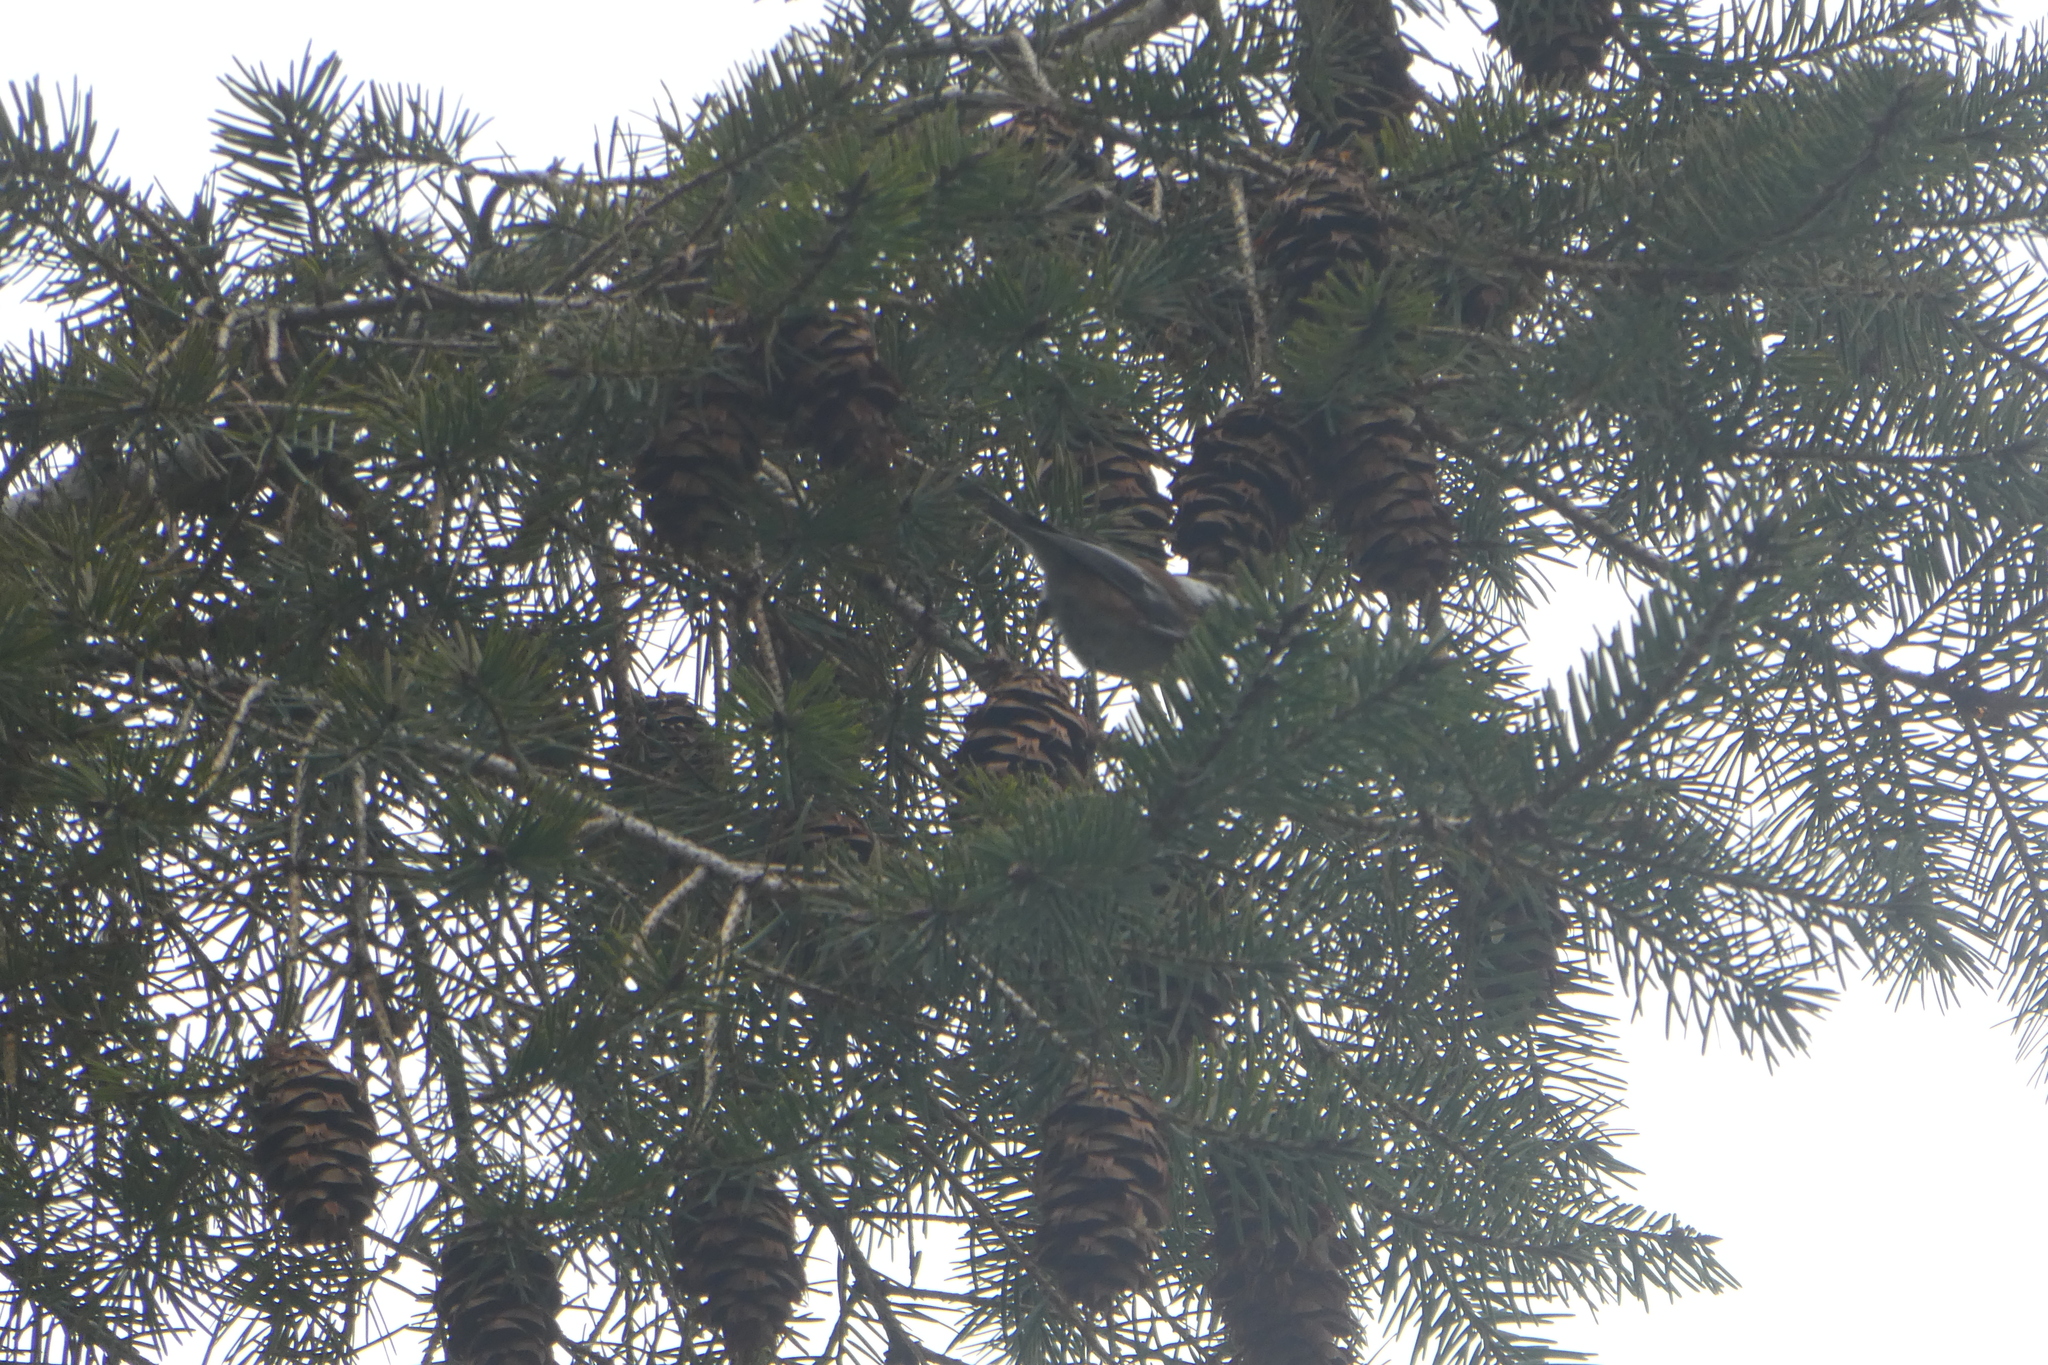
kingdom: Animalia
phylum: Chordata
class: Aves
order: Passeriformes
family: Paridae
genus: Poecile
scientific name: Poecile rufescens
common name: Chestnut-backed chickadee
